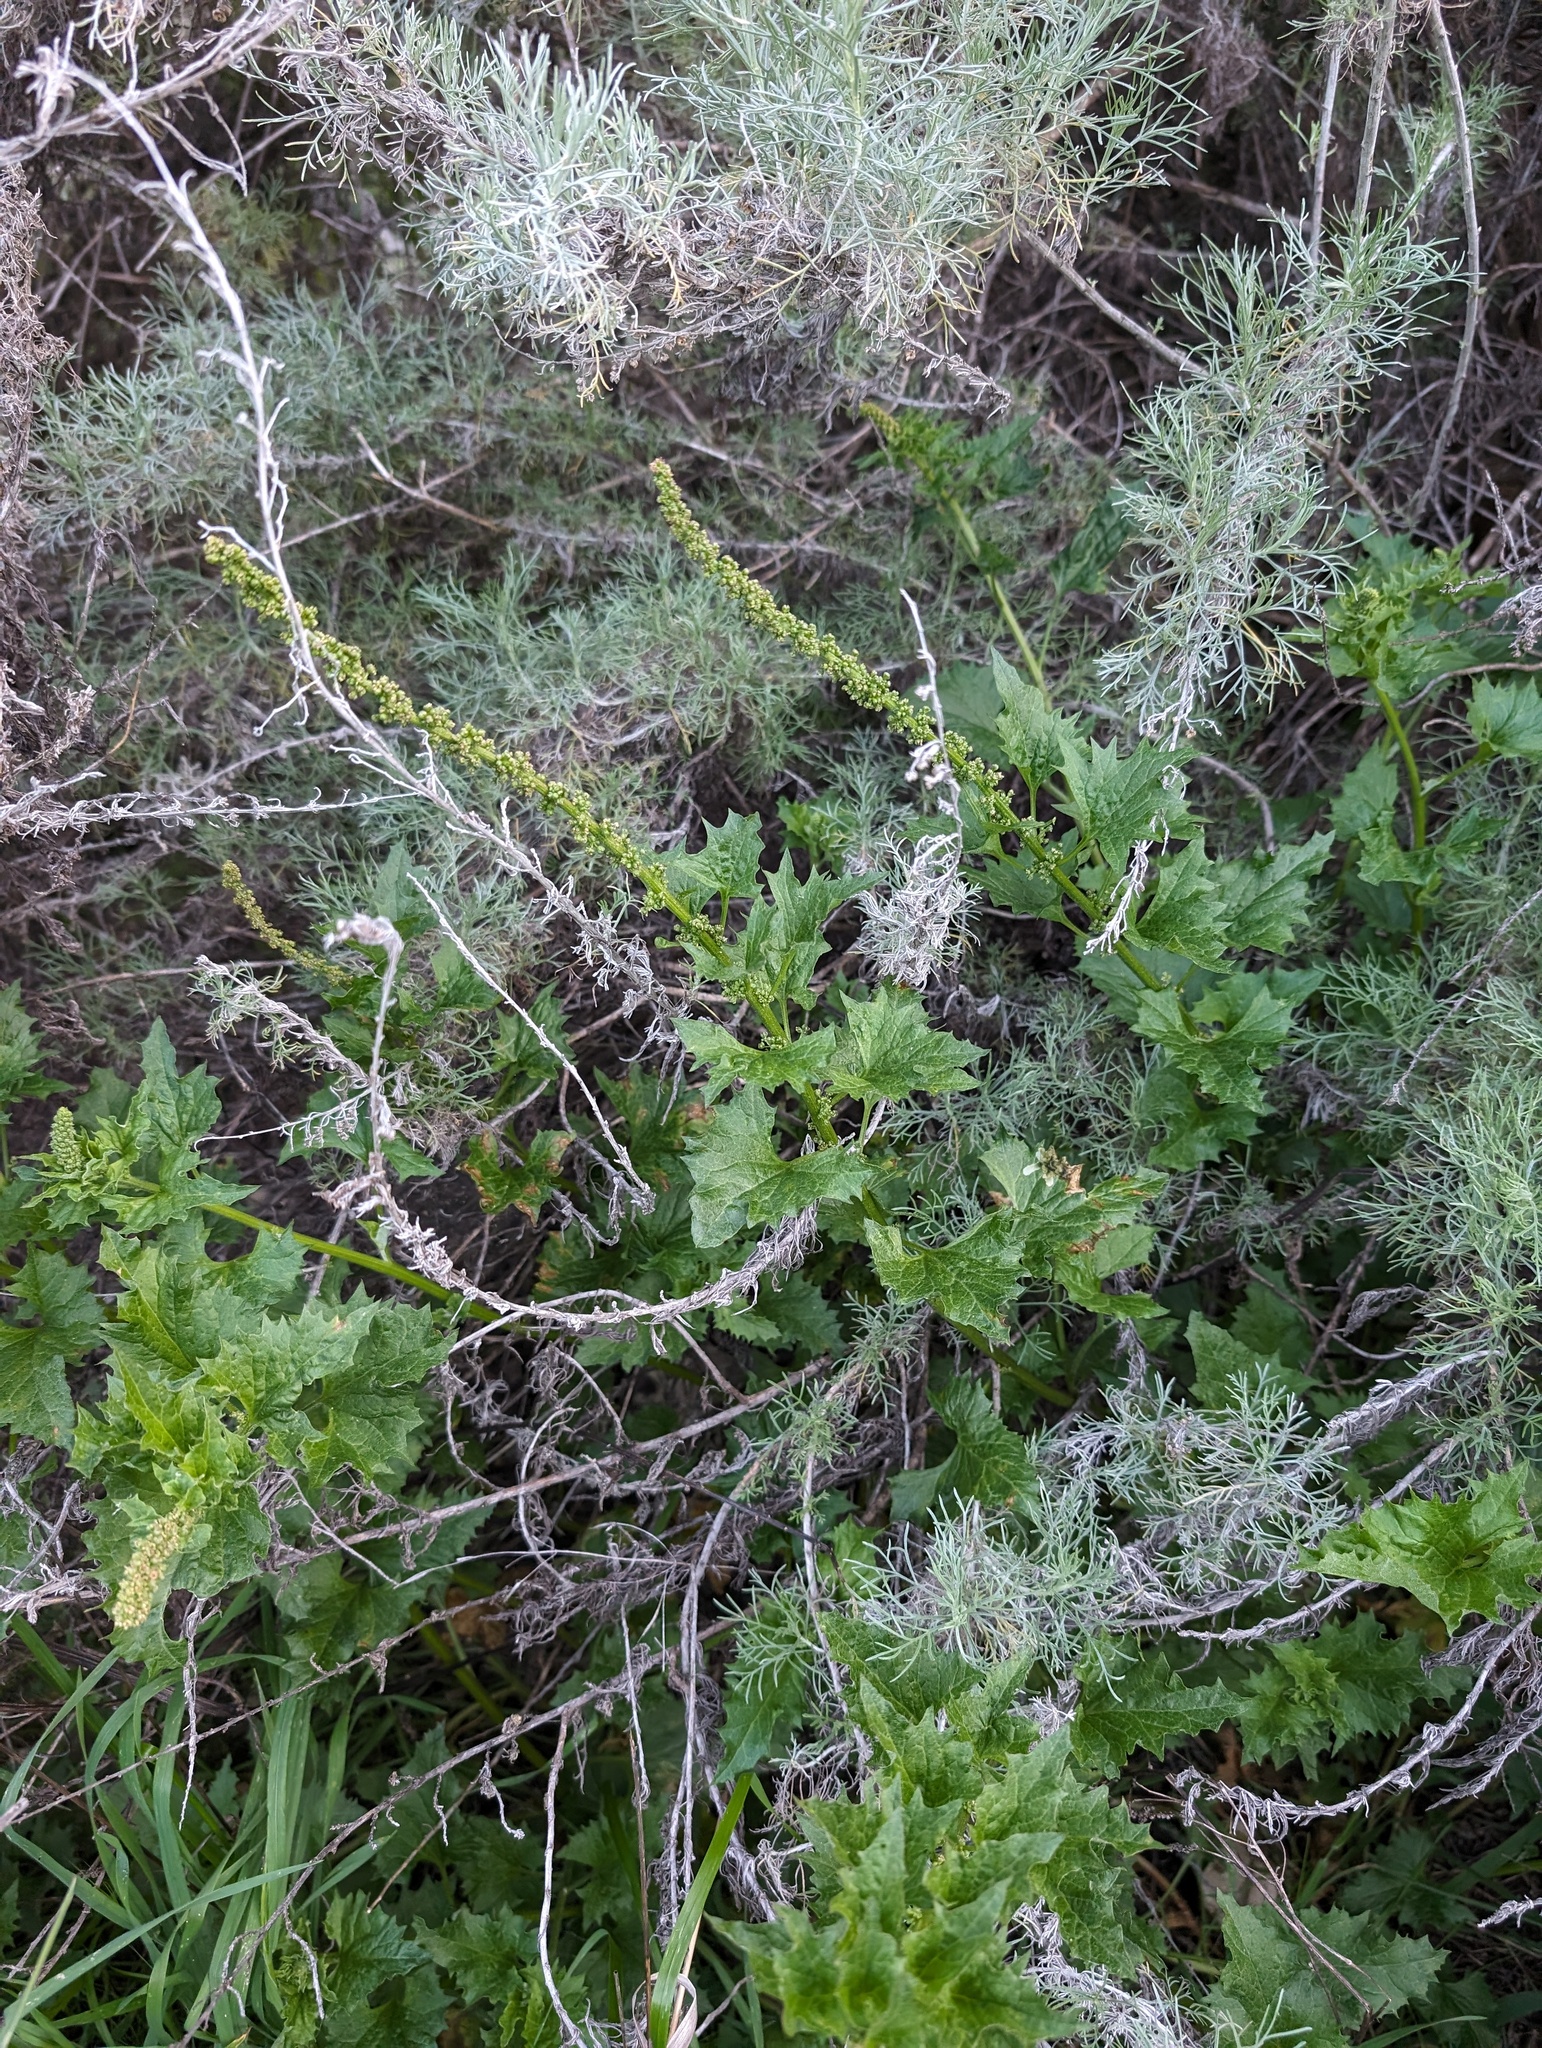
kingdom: Plantae
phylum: Tracheophyta
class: Magnoliopsida
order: Caryophyllales
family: Amaranthaceae
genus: Blitum
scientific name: Blitum californicum
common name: California goosefoot
